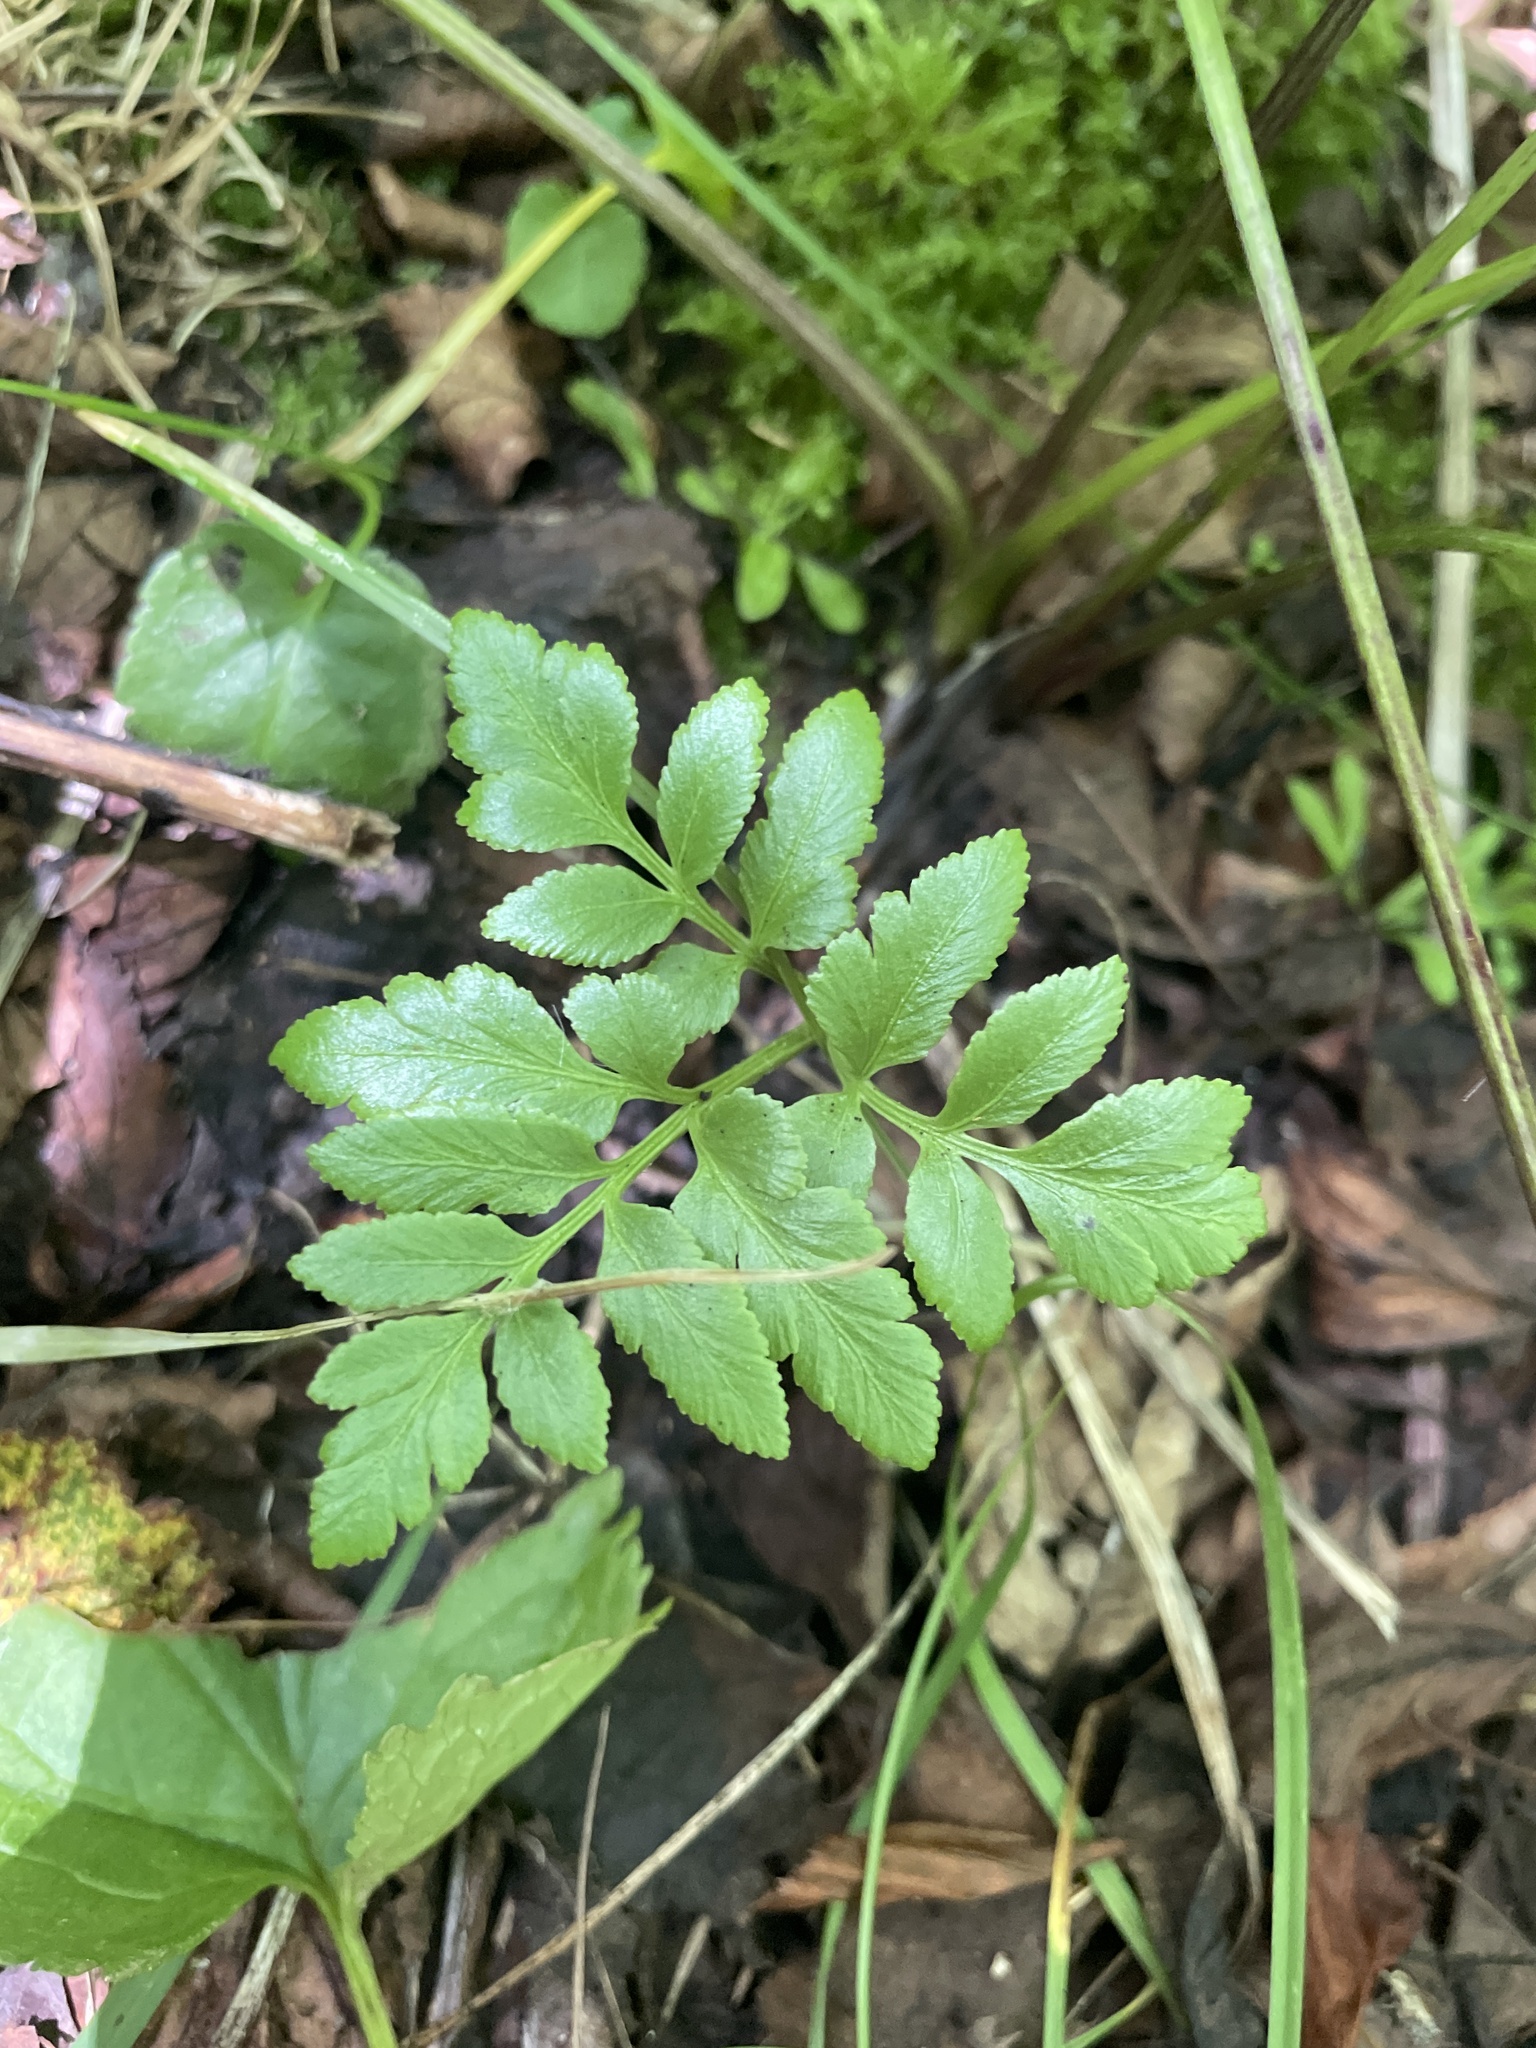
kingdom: Plantae
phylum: Tracheophyta
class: Polypodiopsida
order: Ophioglossales
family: Ophioglossaceae
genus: Sceptridium
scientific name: Sceptridium dissectum
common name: Cut-leaved grapefern
